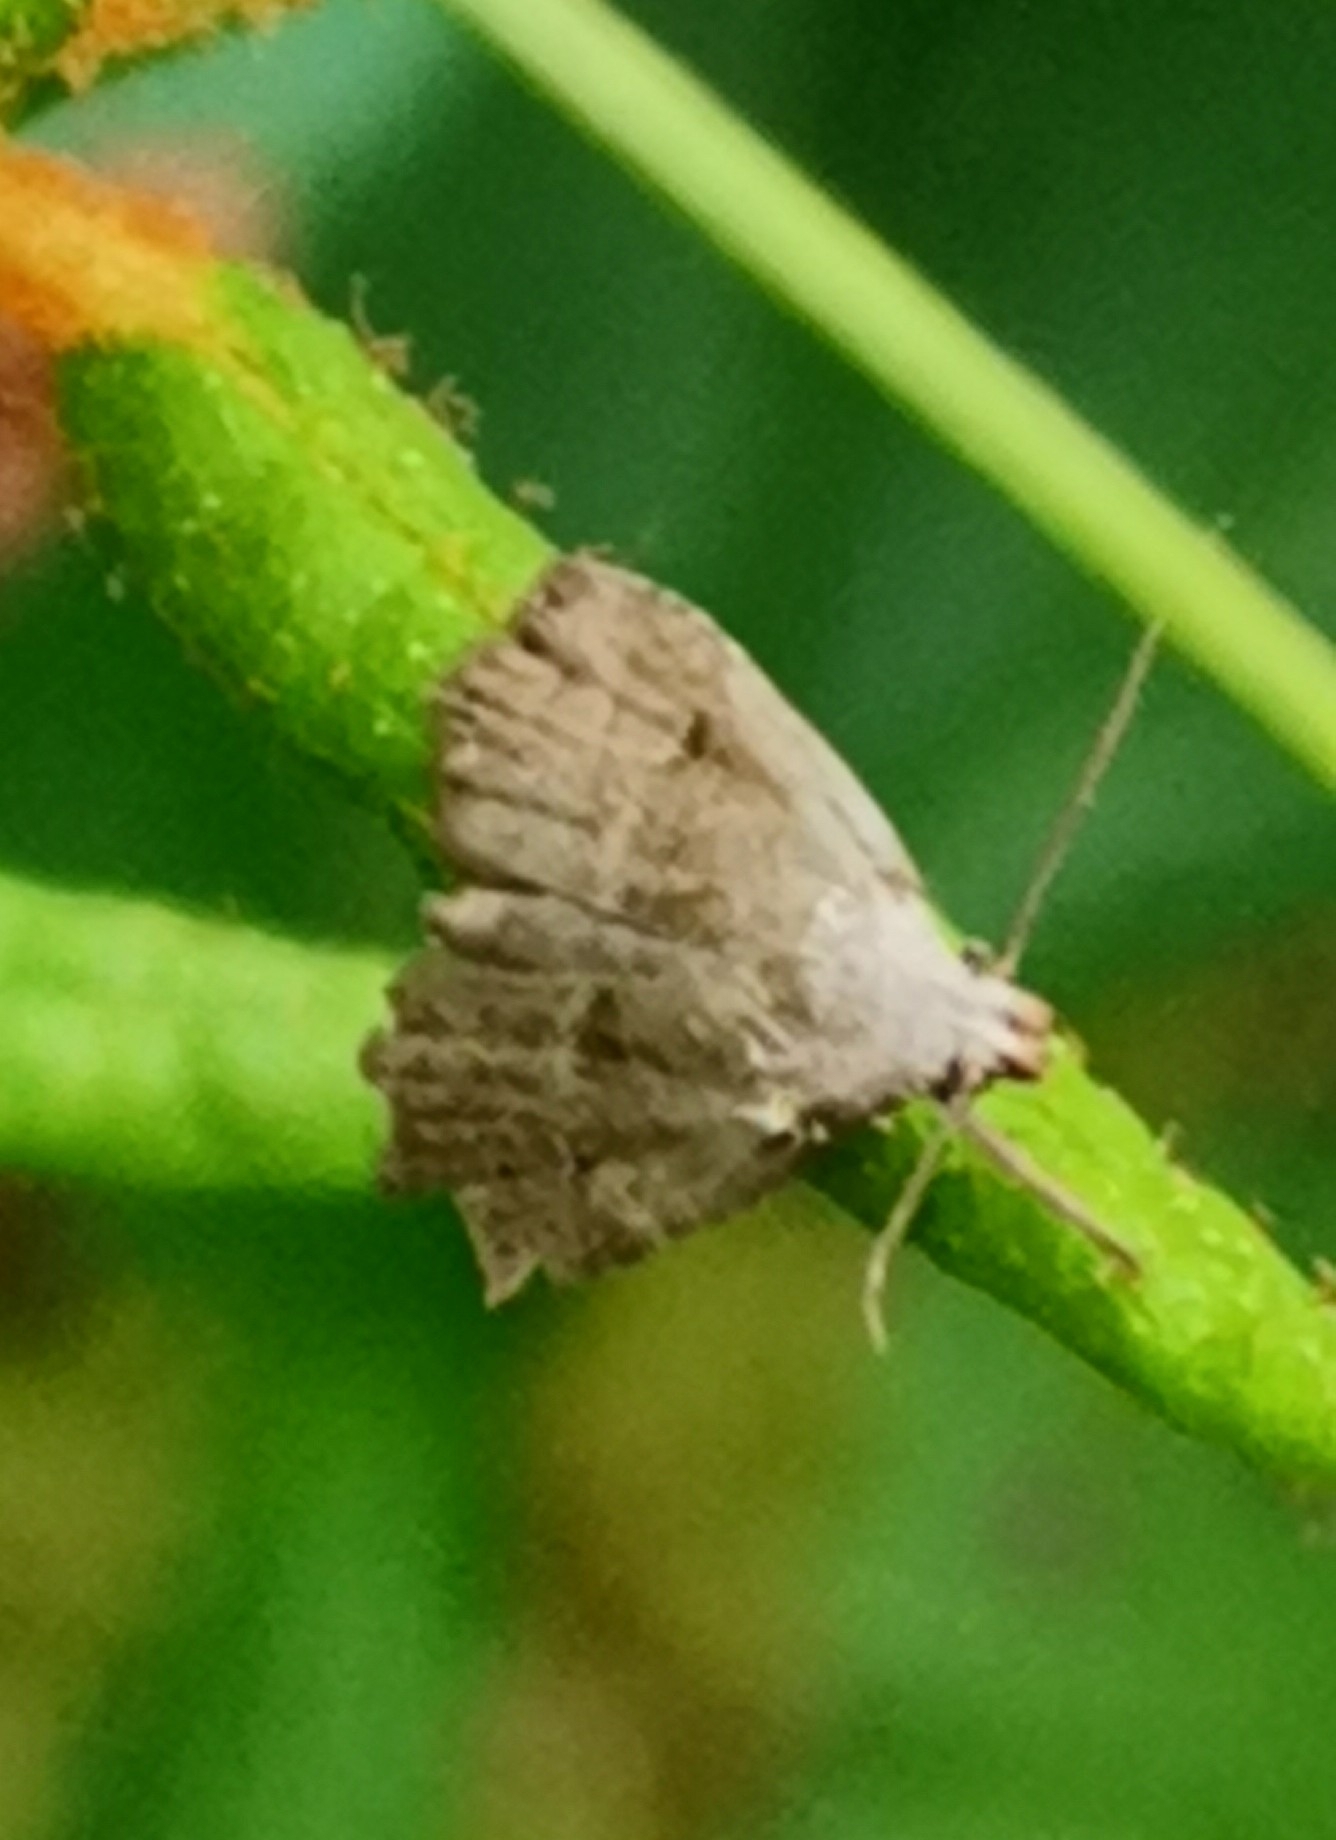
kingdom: Animalia
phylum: Arthropoda
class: Insecta
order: Lepidoptera
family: Erebidae
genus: Hypenodes
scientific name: Hypenodes humidalis
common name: Marsh oblique-barred
